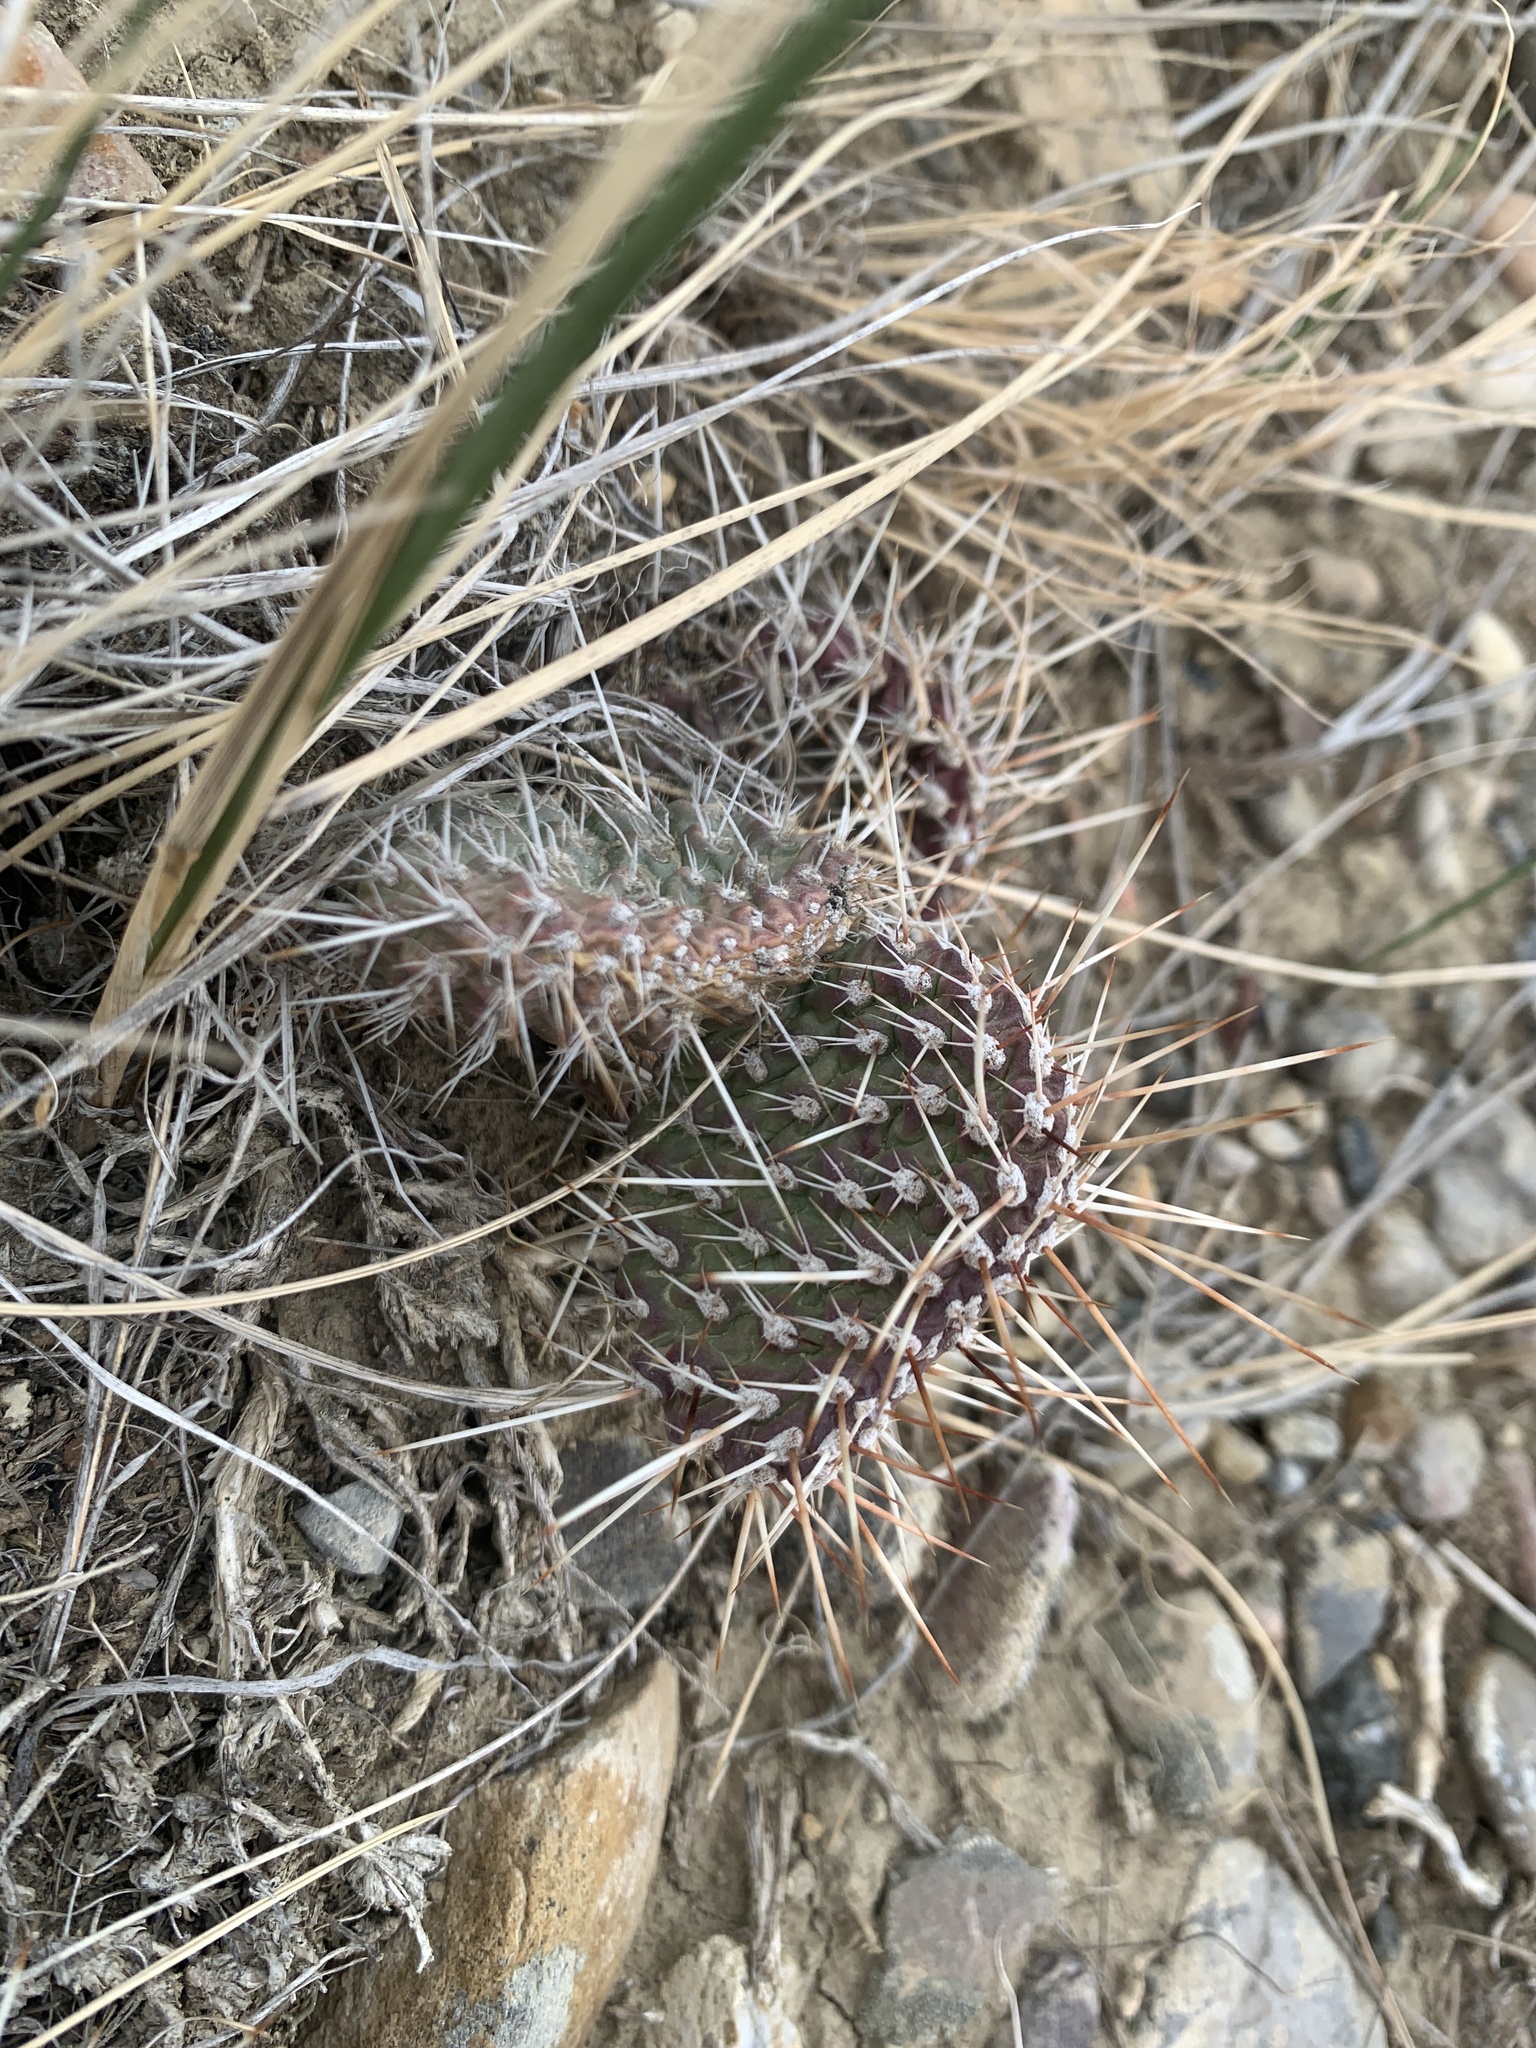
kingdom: Plantae
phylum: Tracheophyta
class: Magnoliopsida
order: Caryophyllales
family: Cactaceae
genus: Opuntia
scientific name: Opuntia polyacantha
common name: Plains prickly-pear
